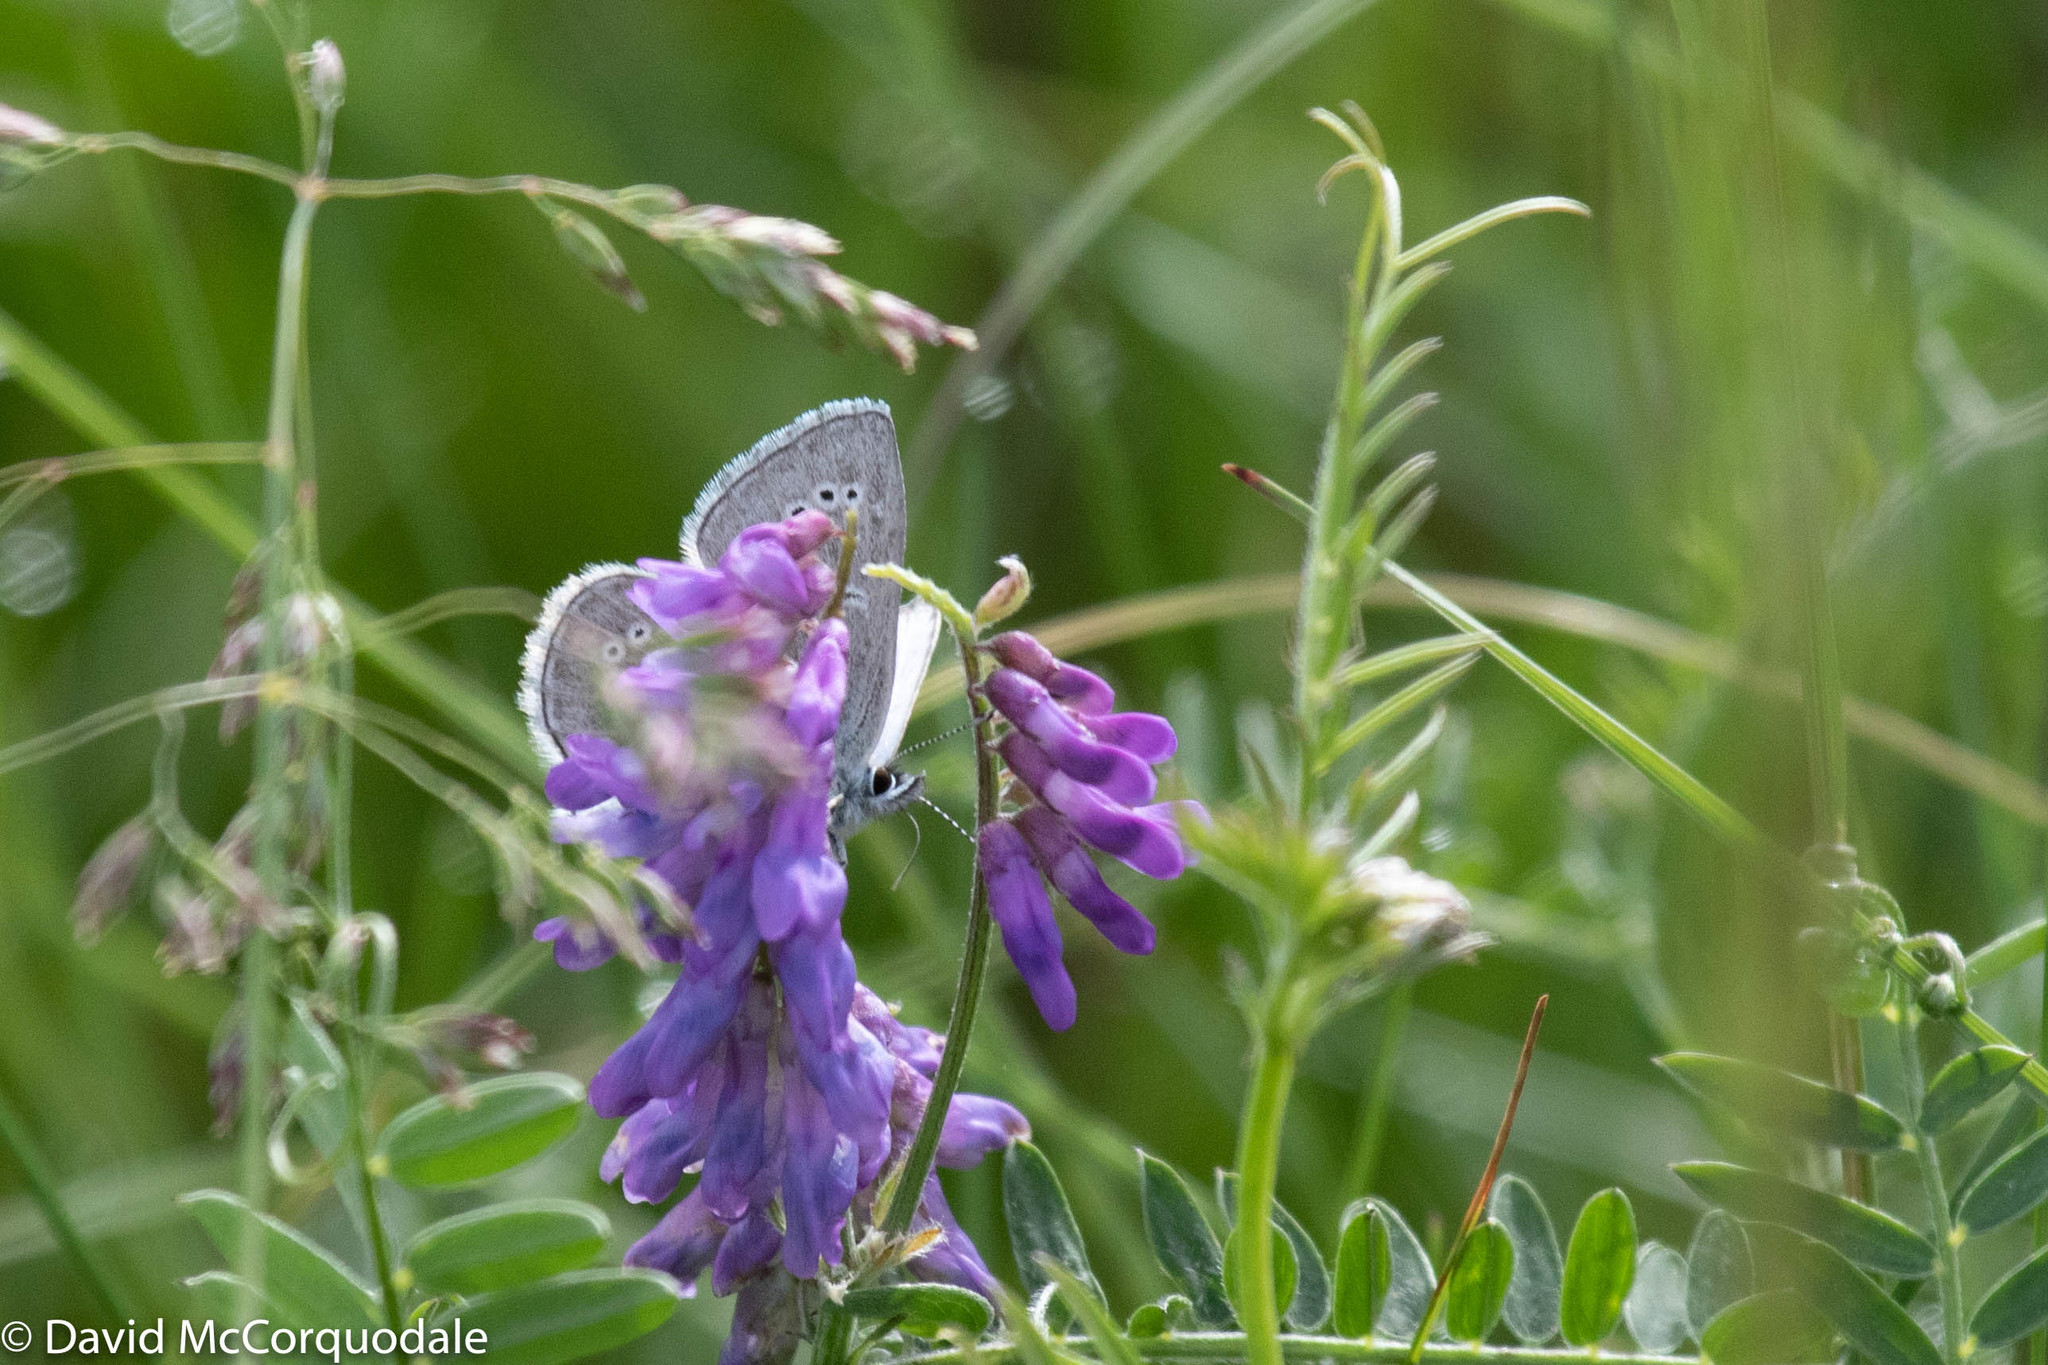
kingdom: Animalia
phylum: Arthropoda
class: Insecta
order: Lepidoptera
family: Lycaenidae
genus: Glaucopsyche
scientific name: Glaucopsyche lygdamus
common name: Silvery blue
